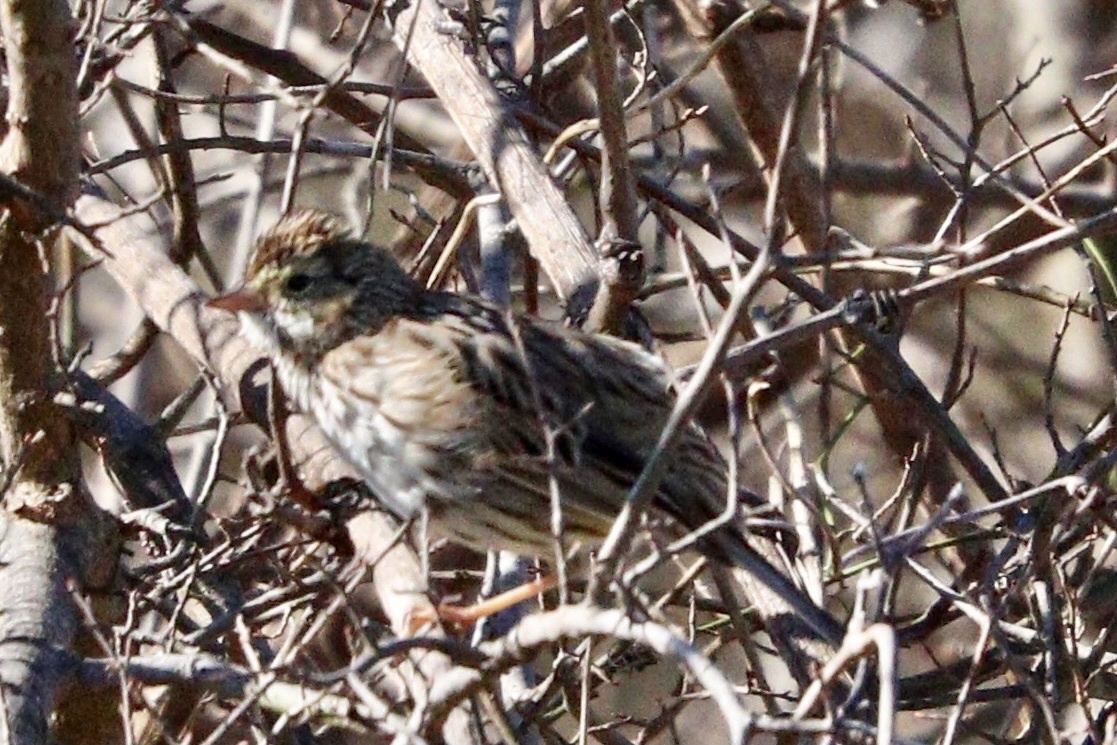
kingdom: Animalia
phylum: Chordata
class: Aves
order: Passeriformes
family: Passerellidae
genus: Passerculus
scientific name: Passerculus sandwichensis
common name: Savannah sparrow
